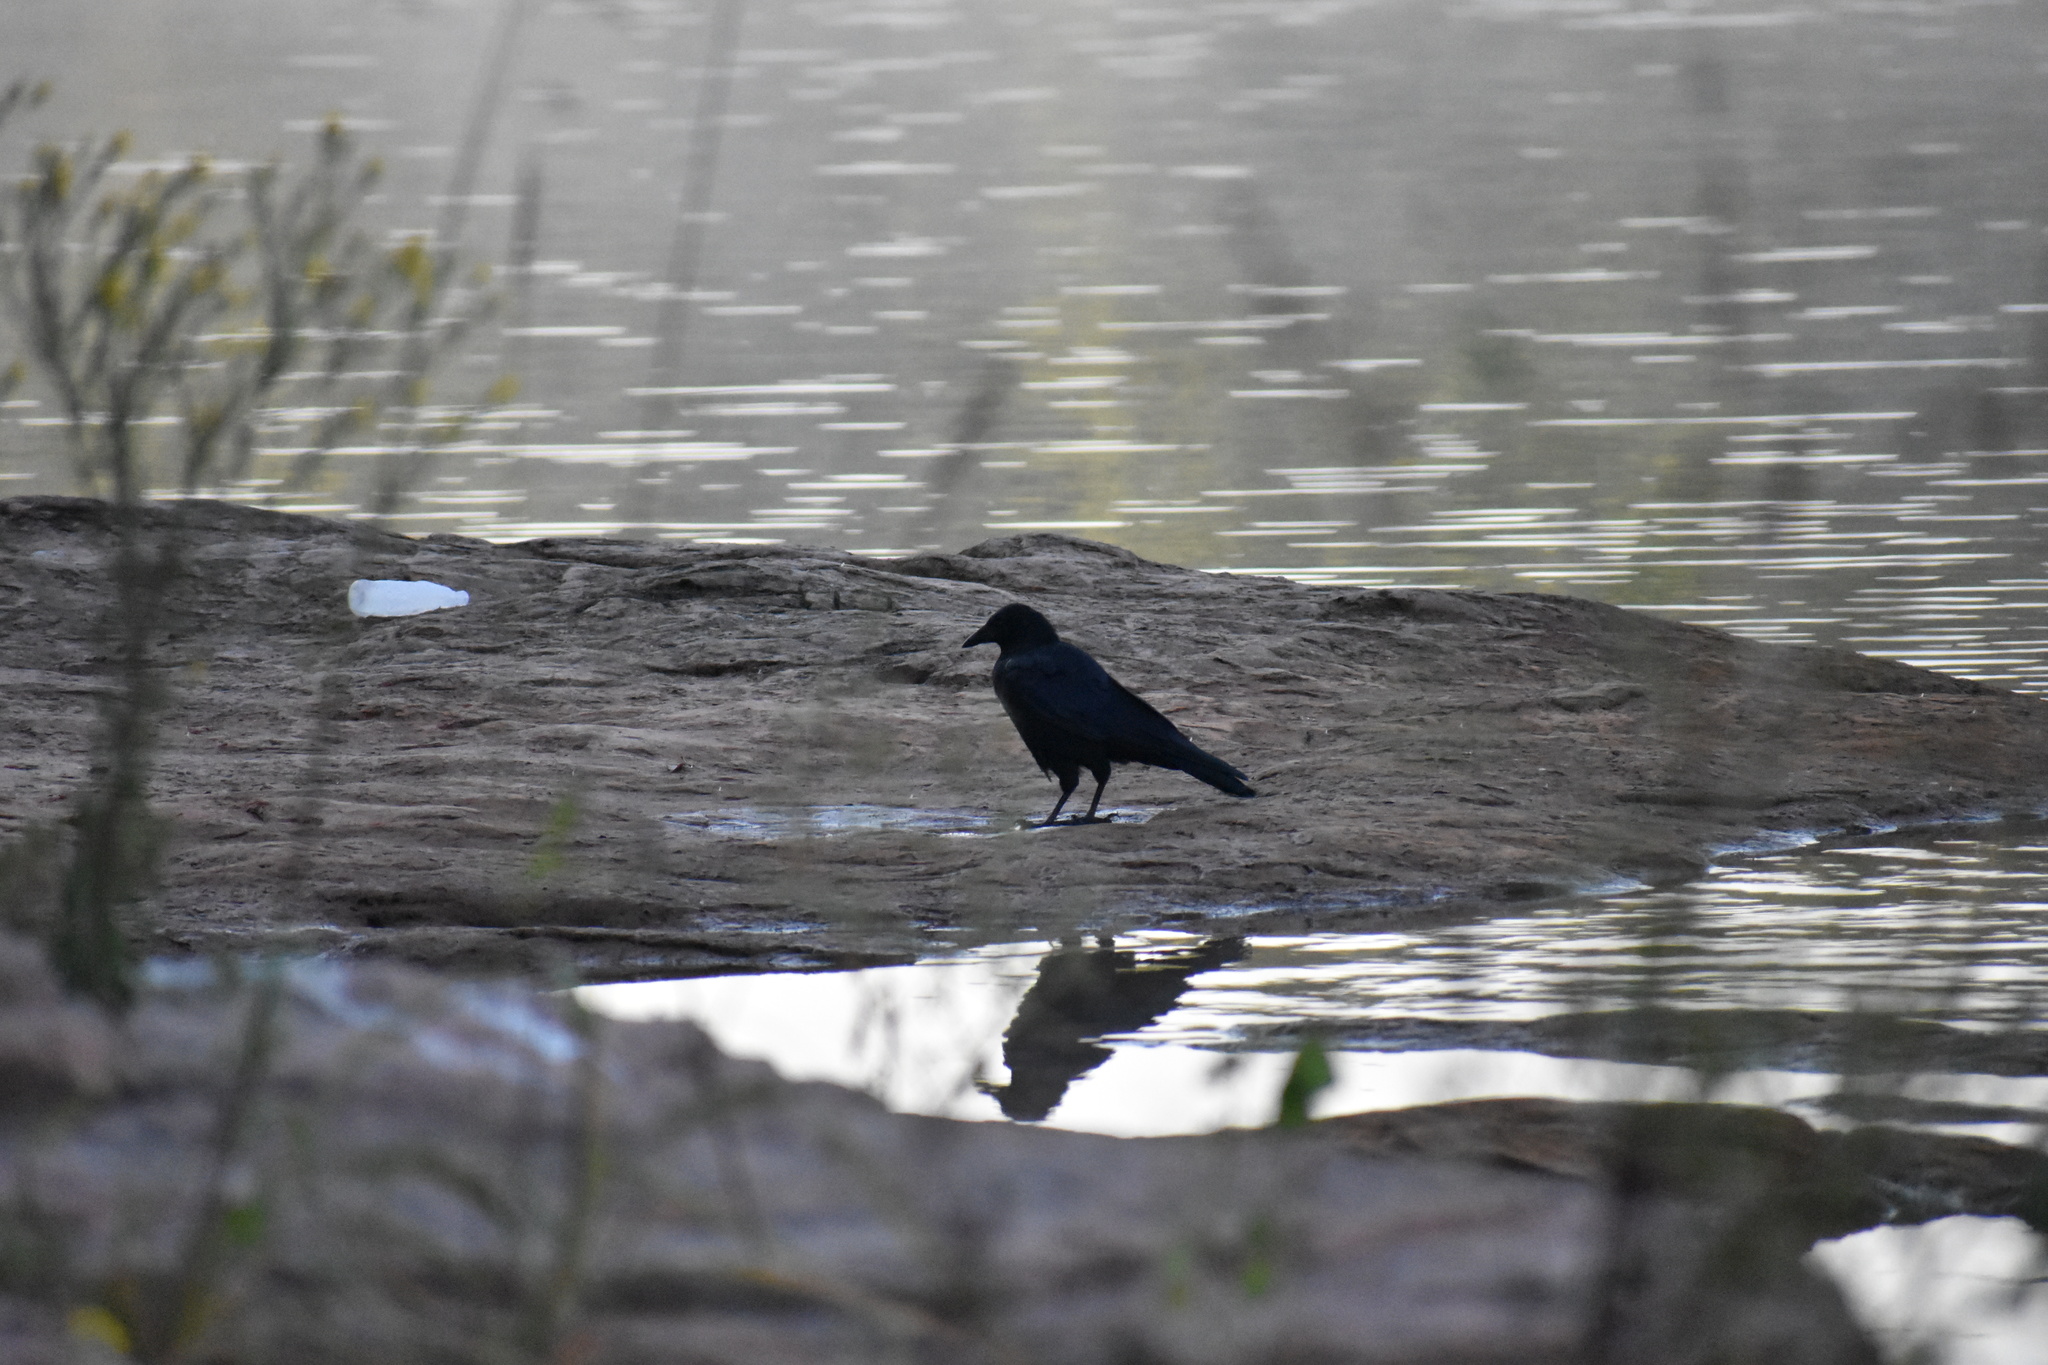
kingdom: Animalia
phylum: Chordata
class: Aves
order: Passeriformes
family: Corvidae
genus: Corvus
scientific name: Corvus brachyrhynchos
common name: American crow
